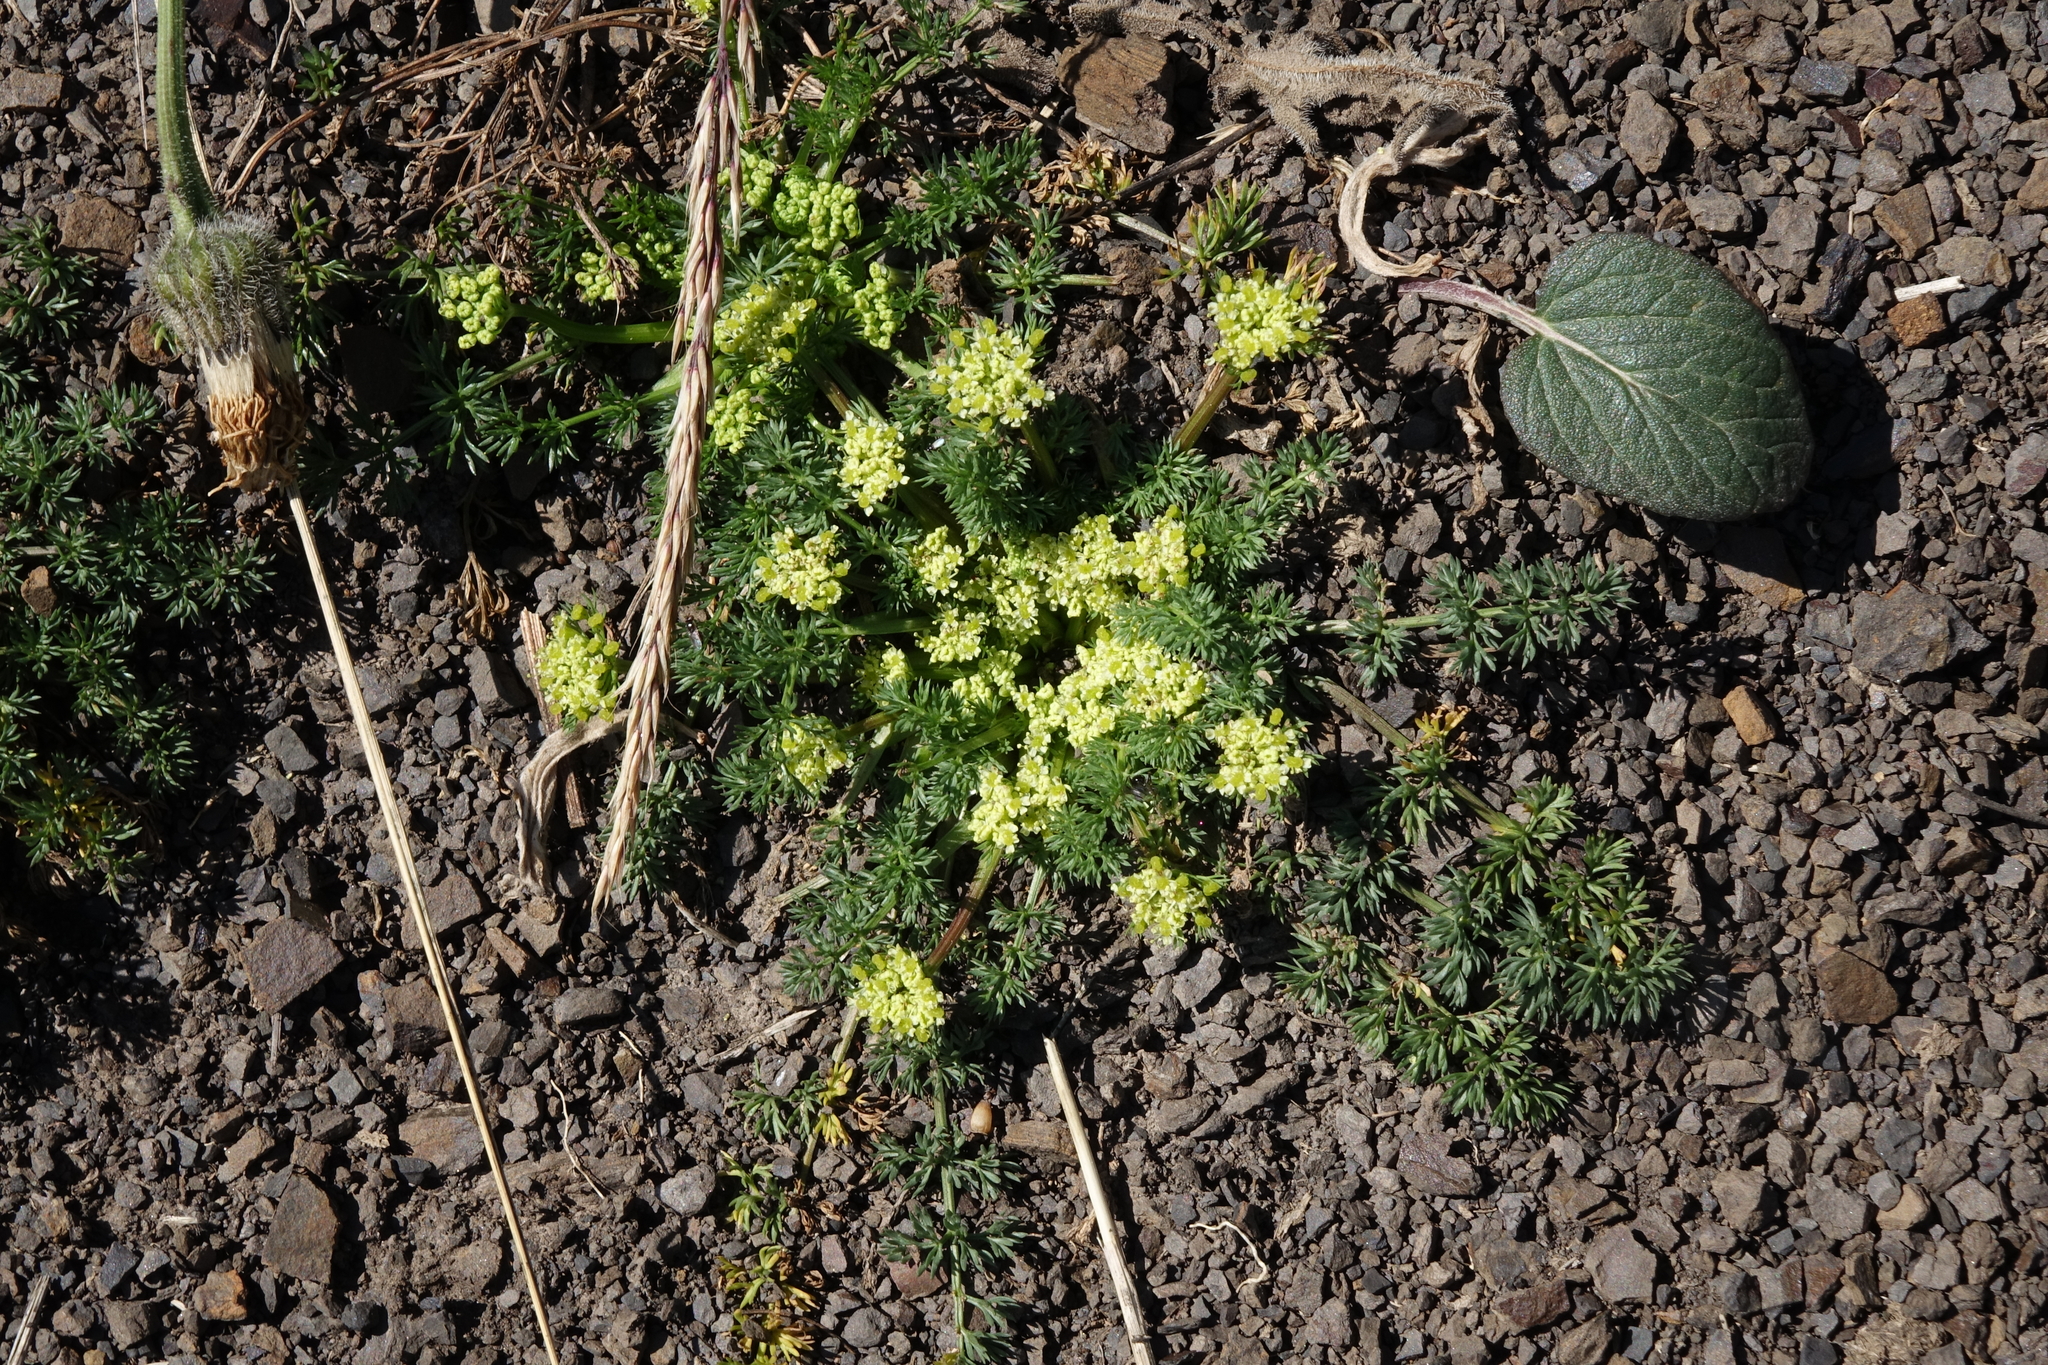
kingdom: Plantae
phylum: Tracheophyta
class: Magnoliopsida
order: Apiales
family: Apiaceae
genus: Chamaesciadium
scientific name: Chamaesciadium acaule
